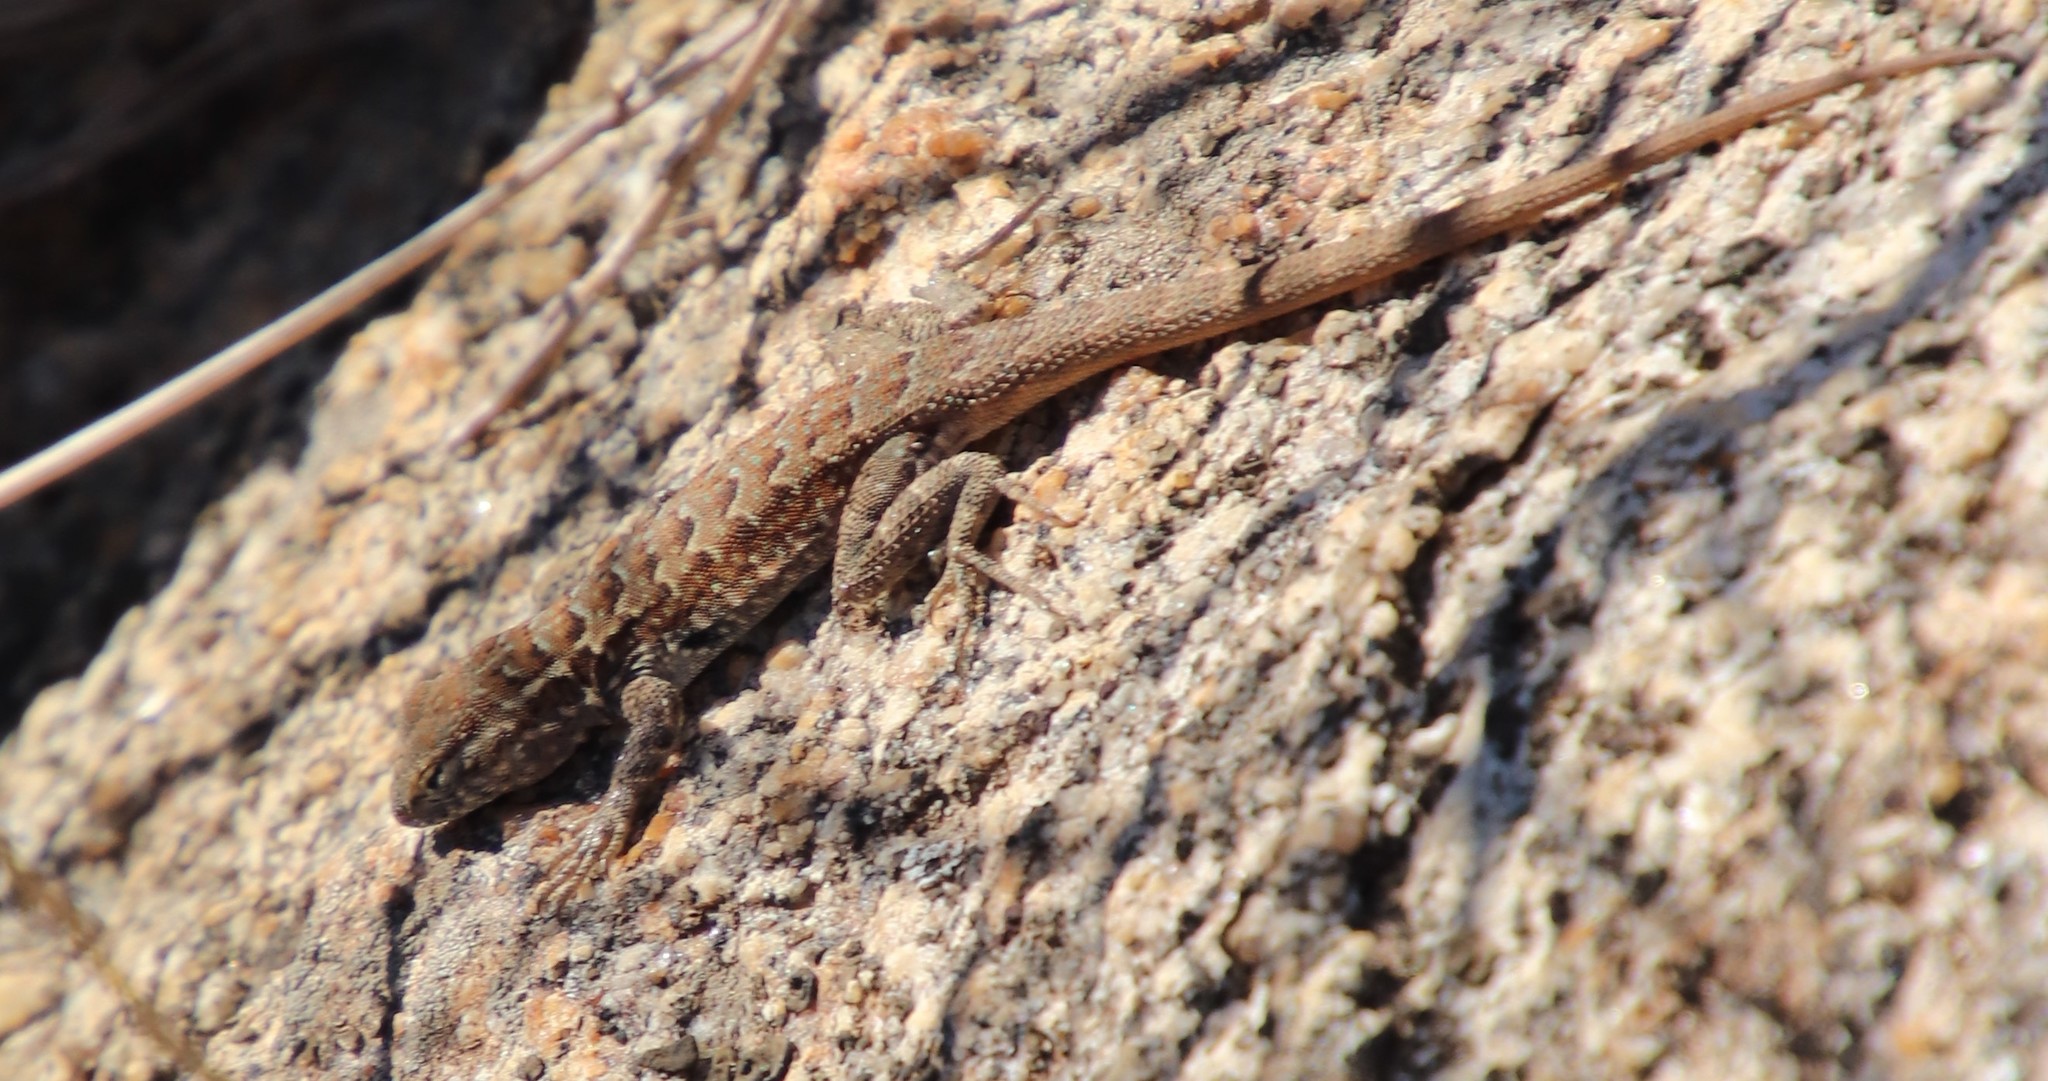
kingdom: Animalia
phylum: Chordata
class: Squamata
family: Phrynosomatidae
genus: Uta
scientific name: Uta stansburiana
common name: Side-blotched lizard
